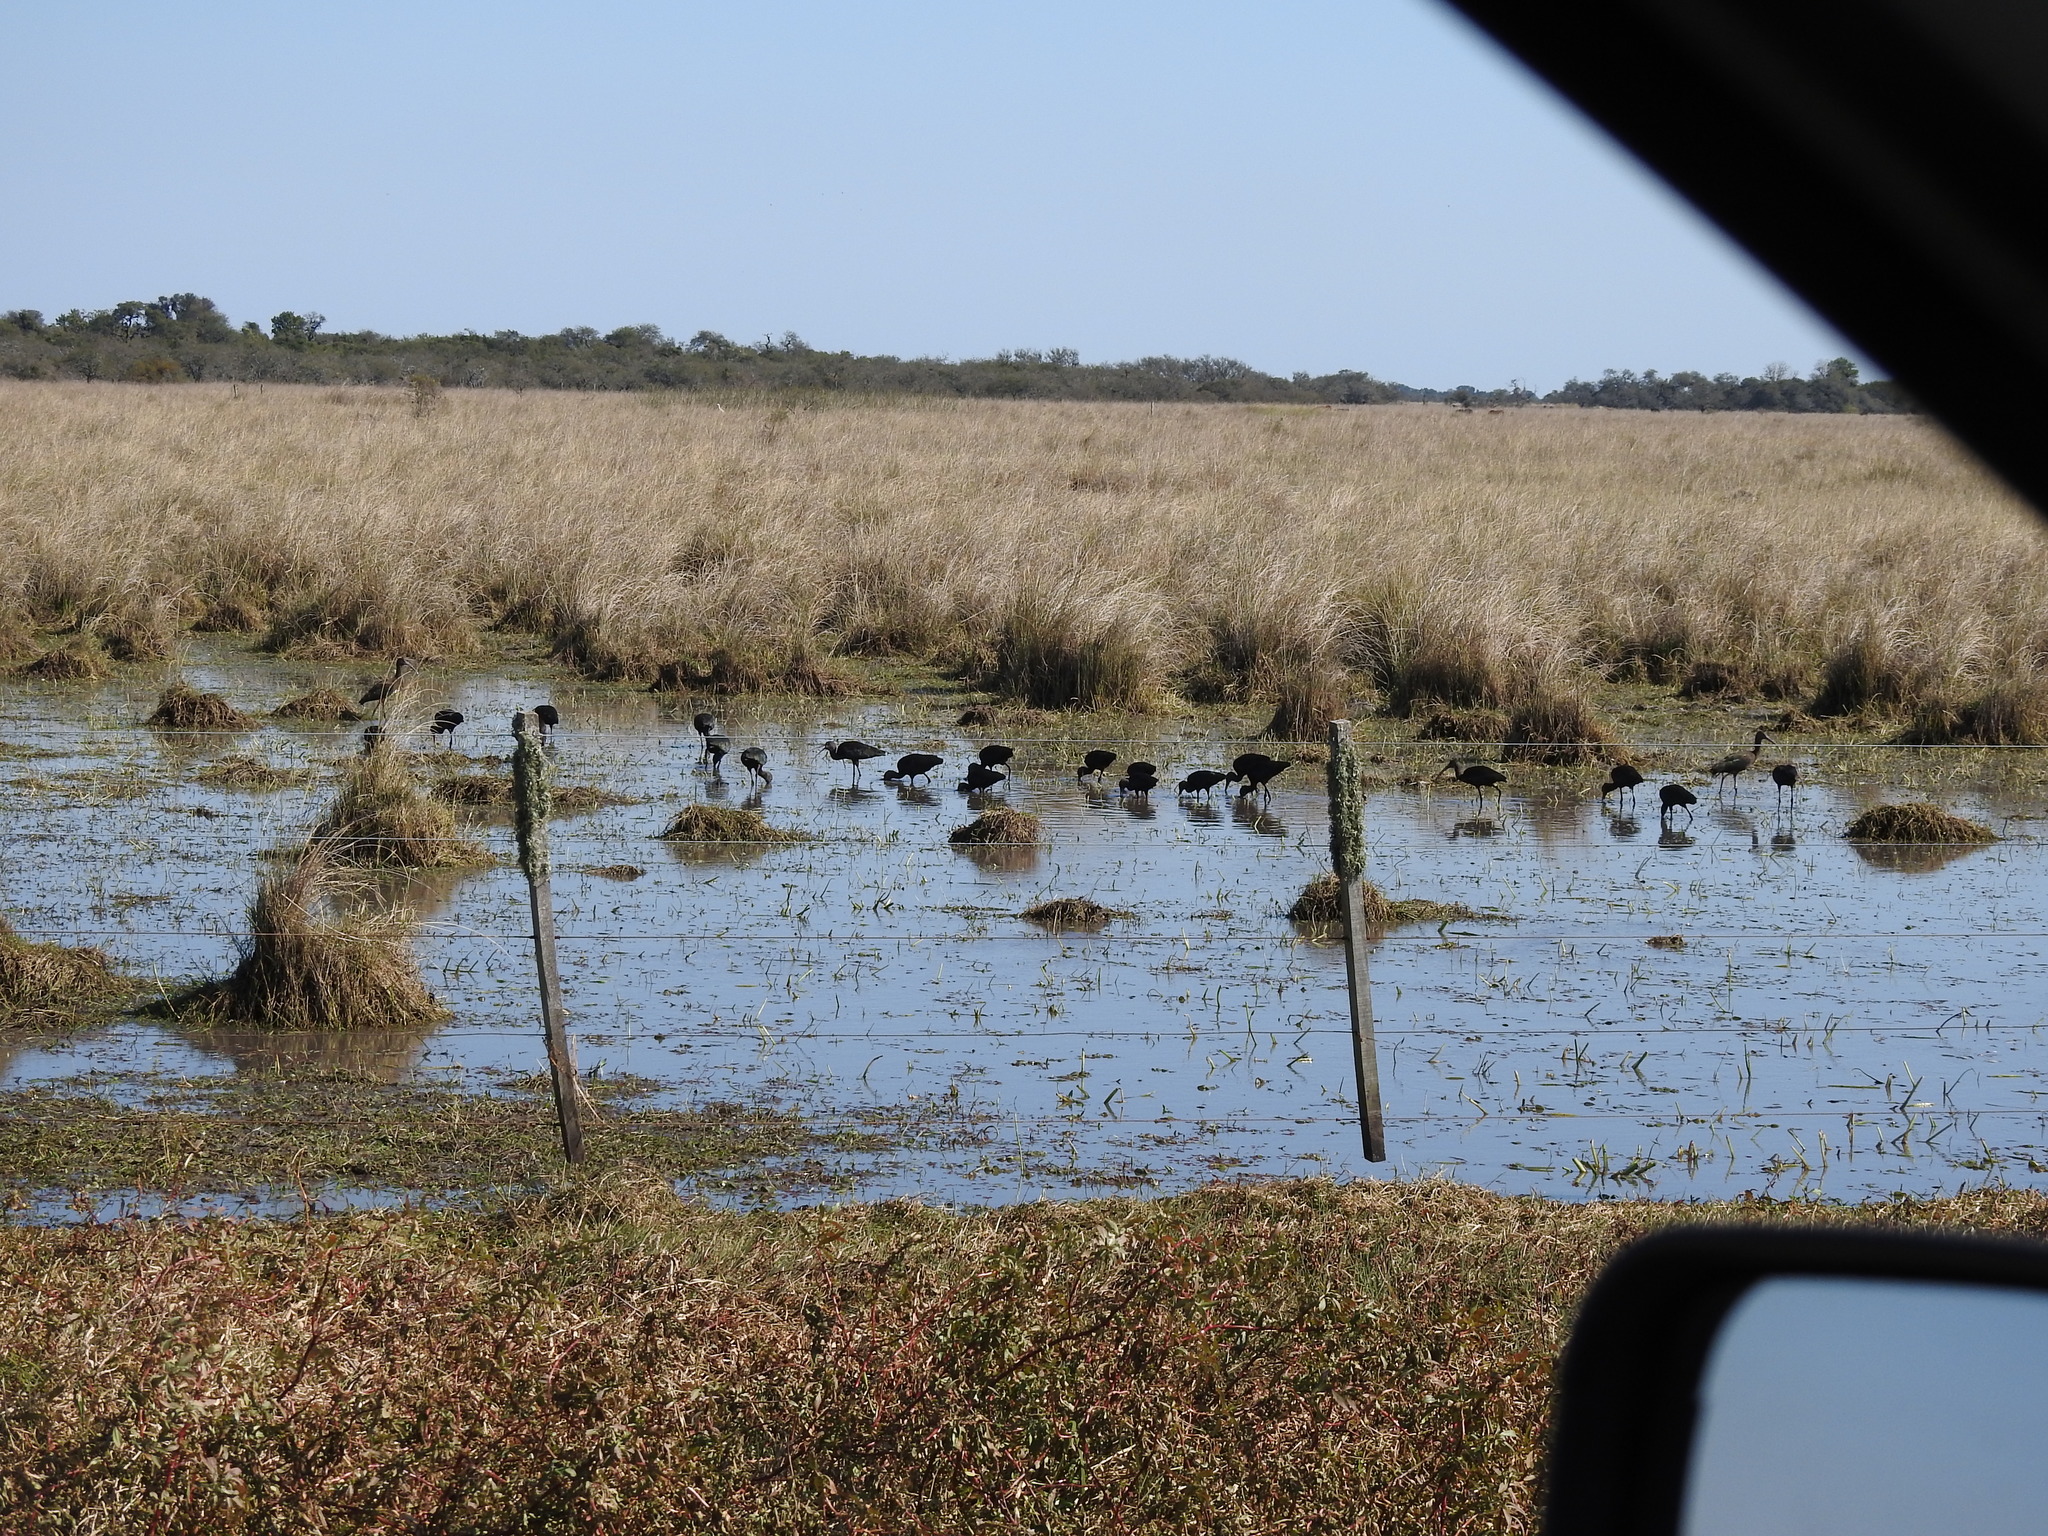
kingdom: Animalia
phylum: Chordata
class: Aves
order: Pelecaniformes
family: Threskiornithidae
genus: Plegadis
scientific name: Plegadis chihi
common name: White-faced ibis
